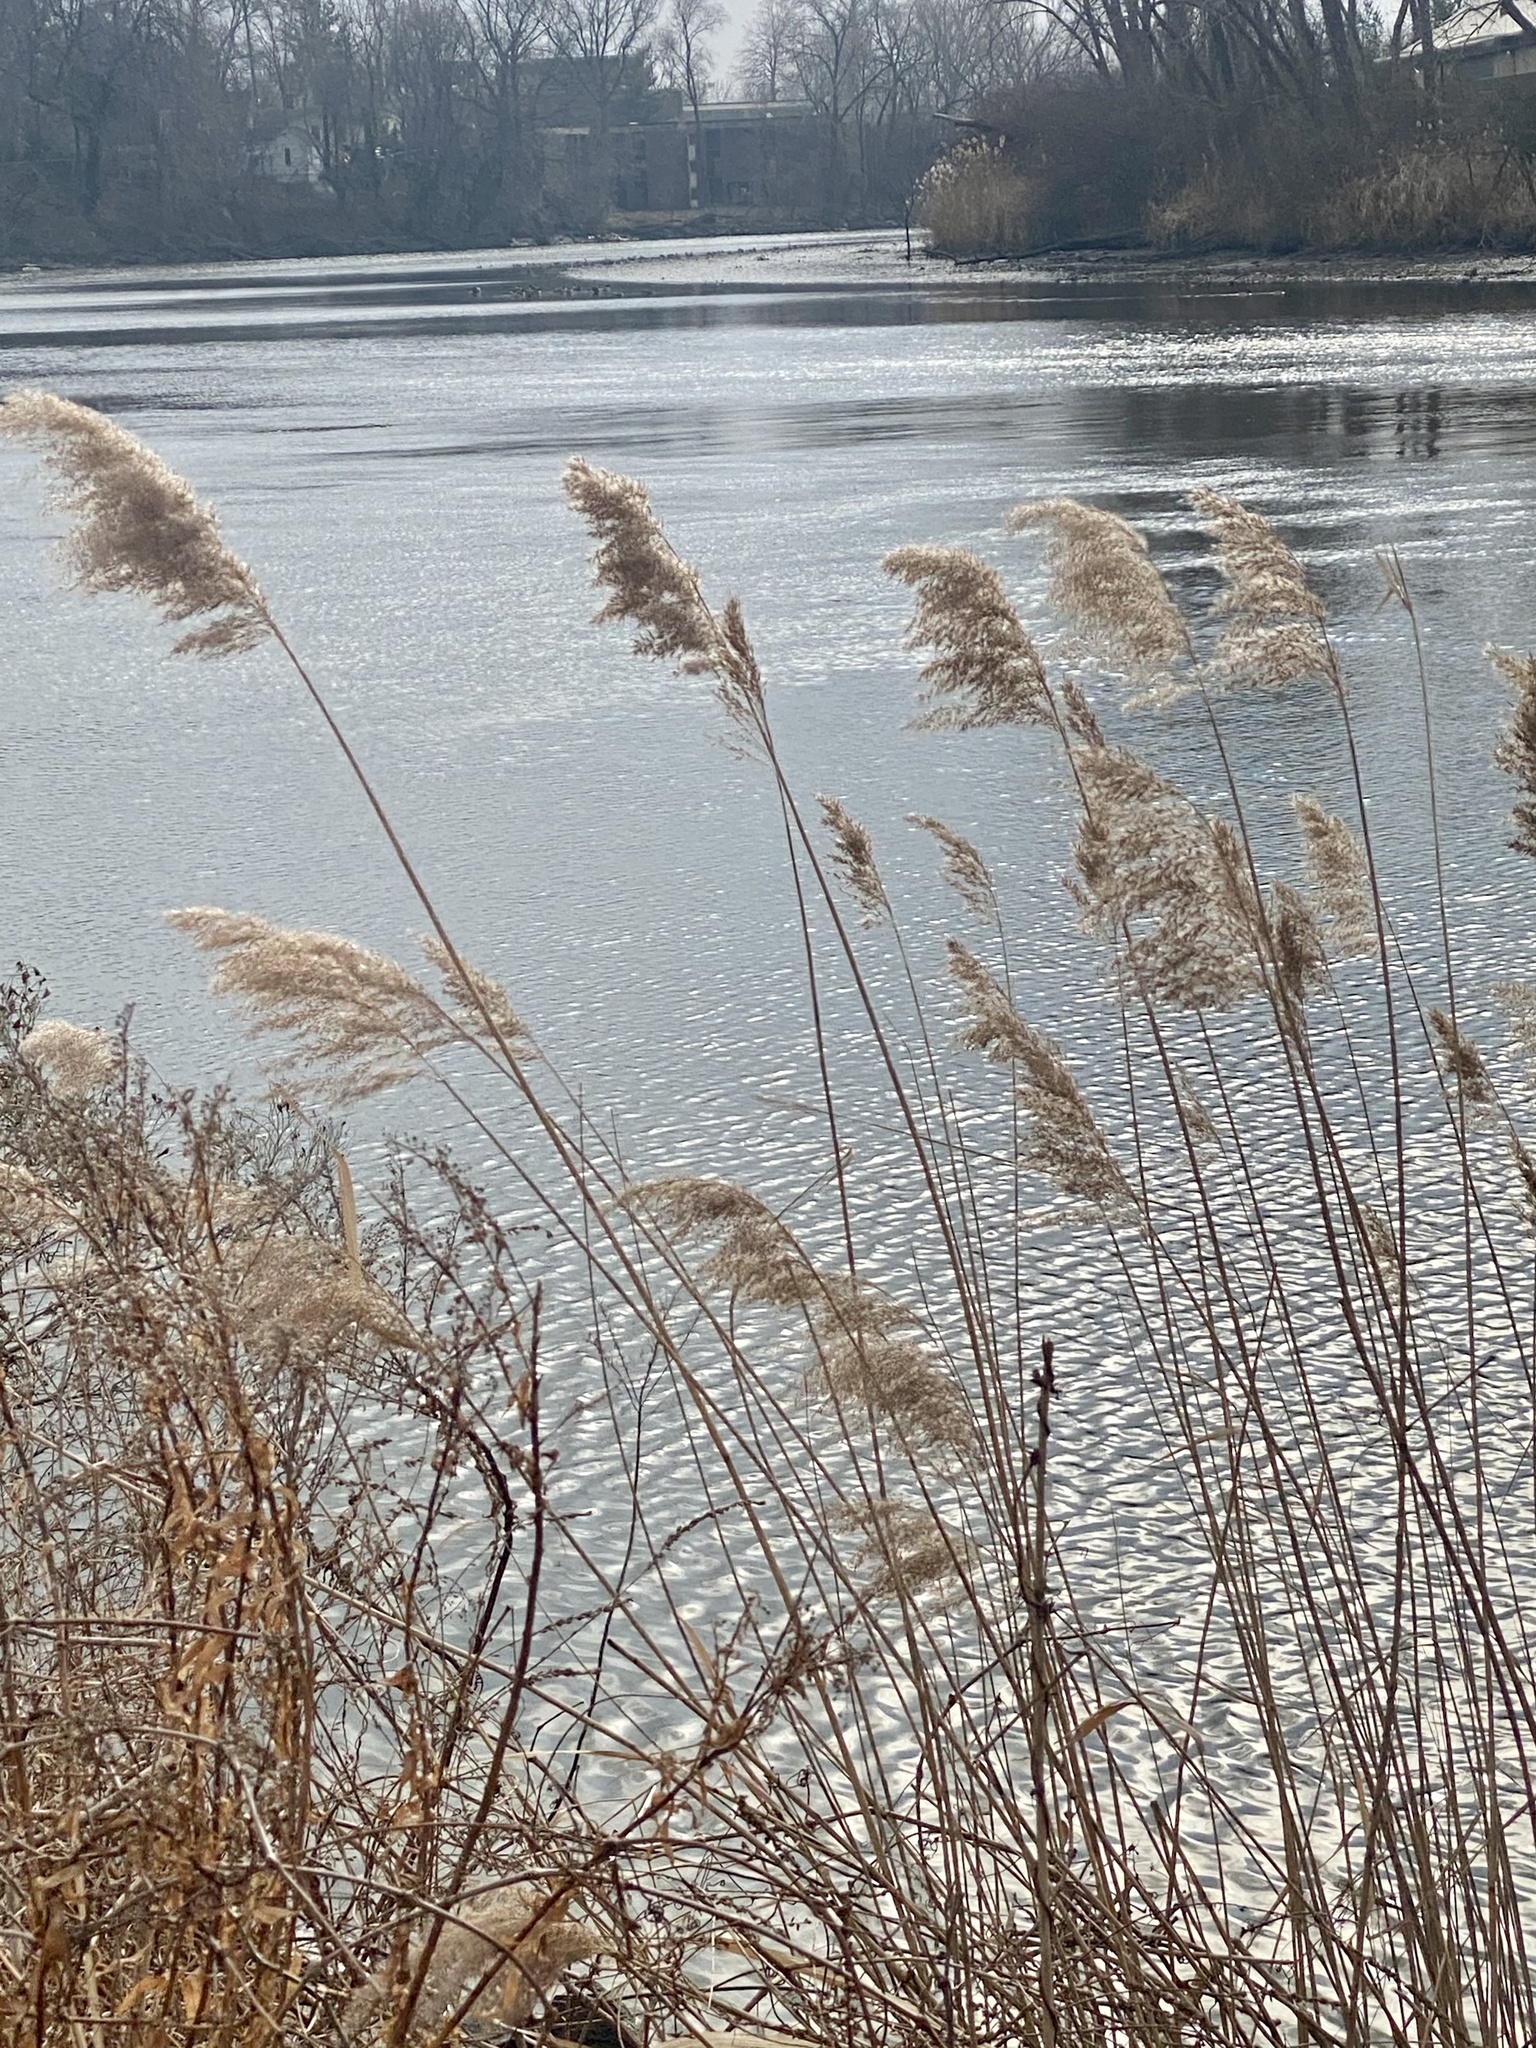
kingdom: Plantae
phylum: Tracheophyta
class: Liliopsida
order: Poales
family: Poaceae
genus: Phragmites
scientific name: Phragmites australis
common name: Common reed
